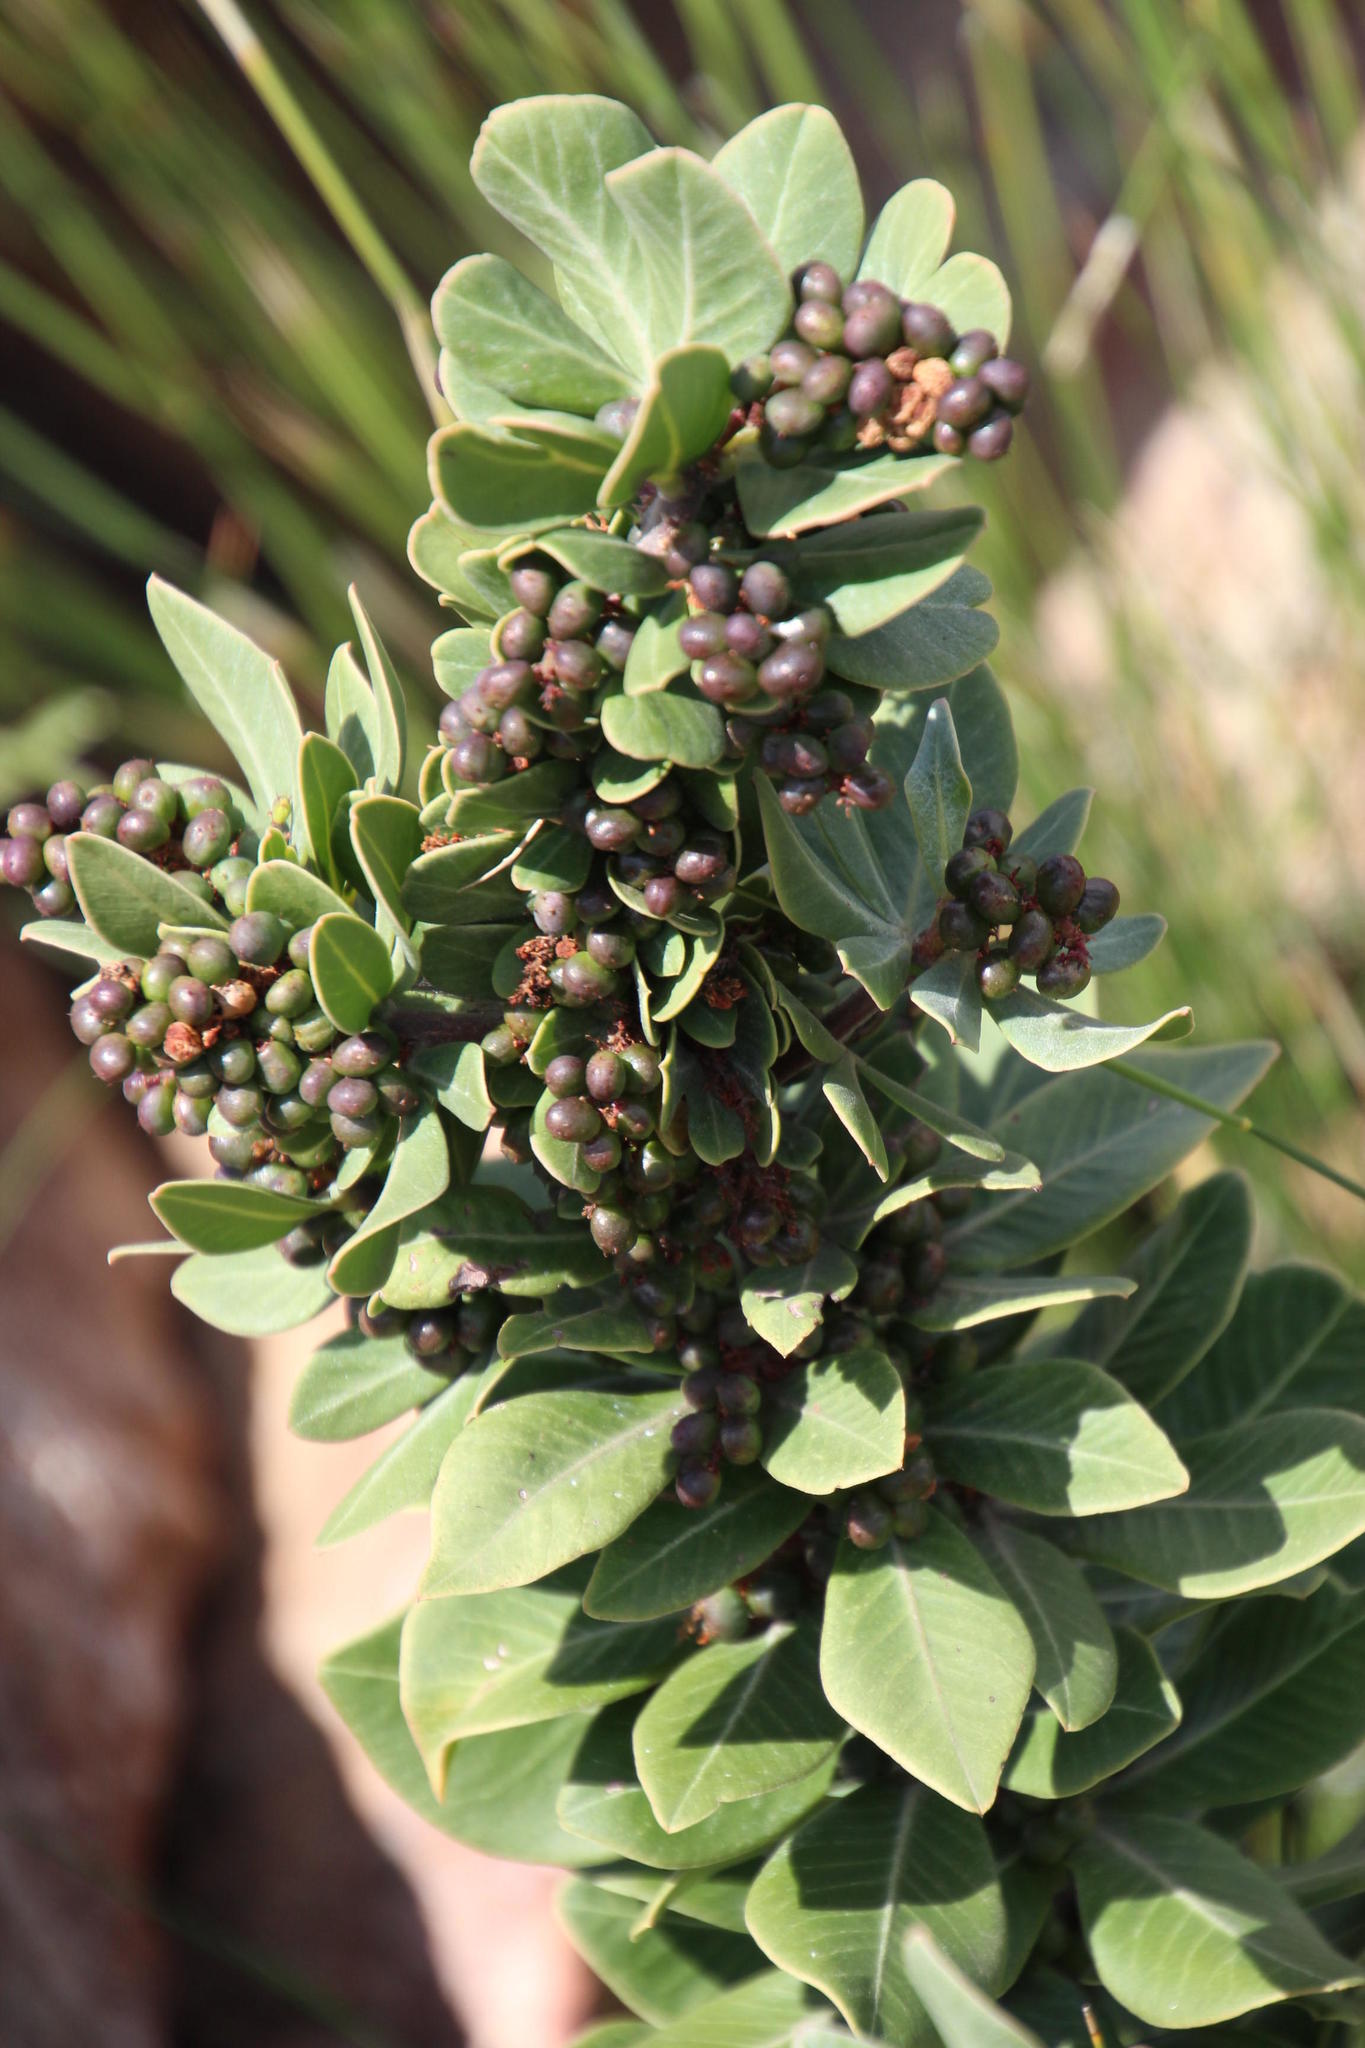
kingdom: Plantae
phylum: Tracheophyta
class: Magnoliopsida
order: Sapindales
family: Anacardiaceae
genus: Searsia
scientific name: Searsia scytophylla
